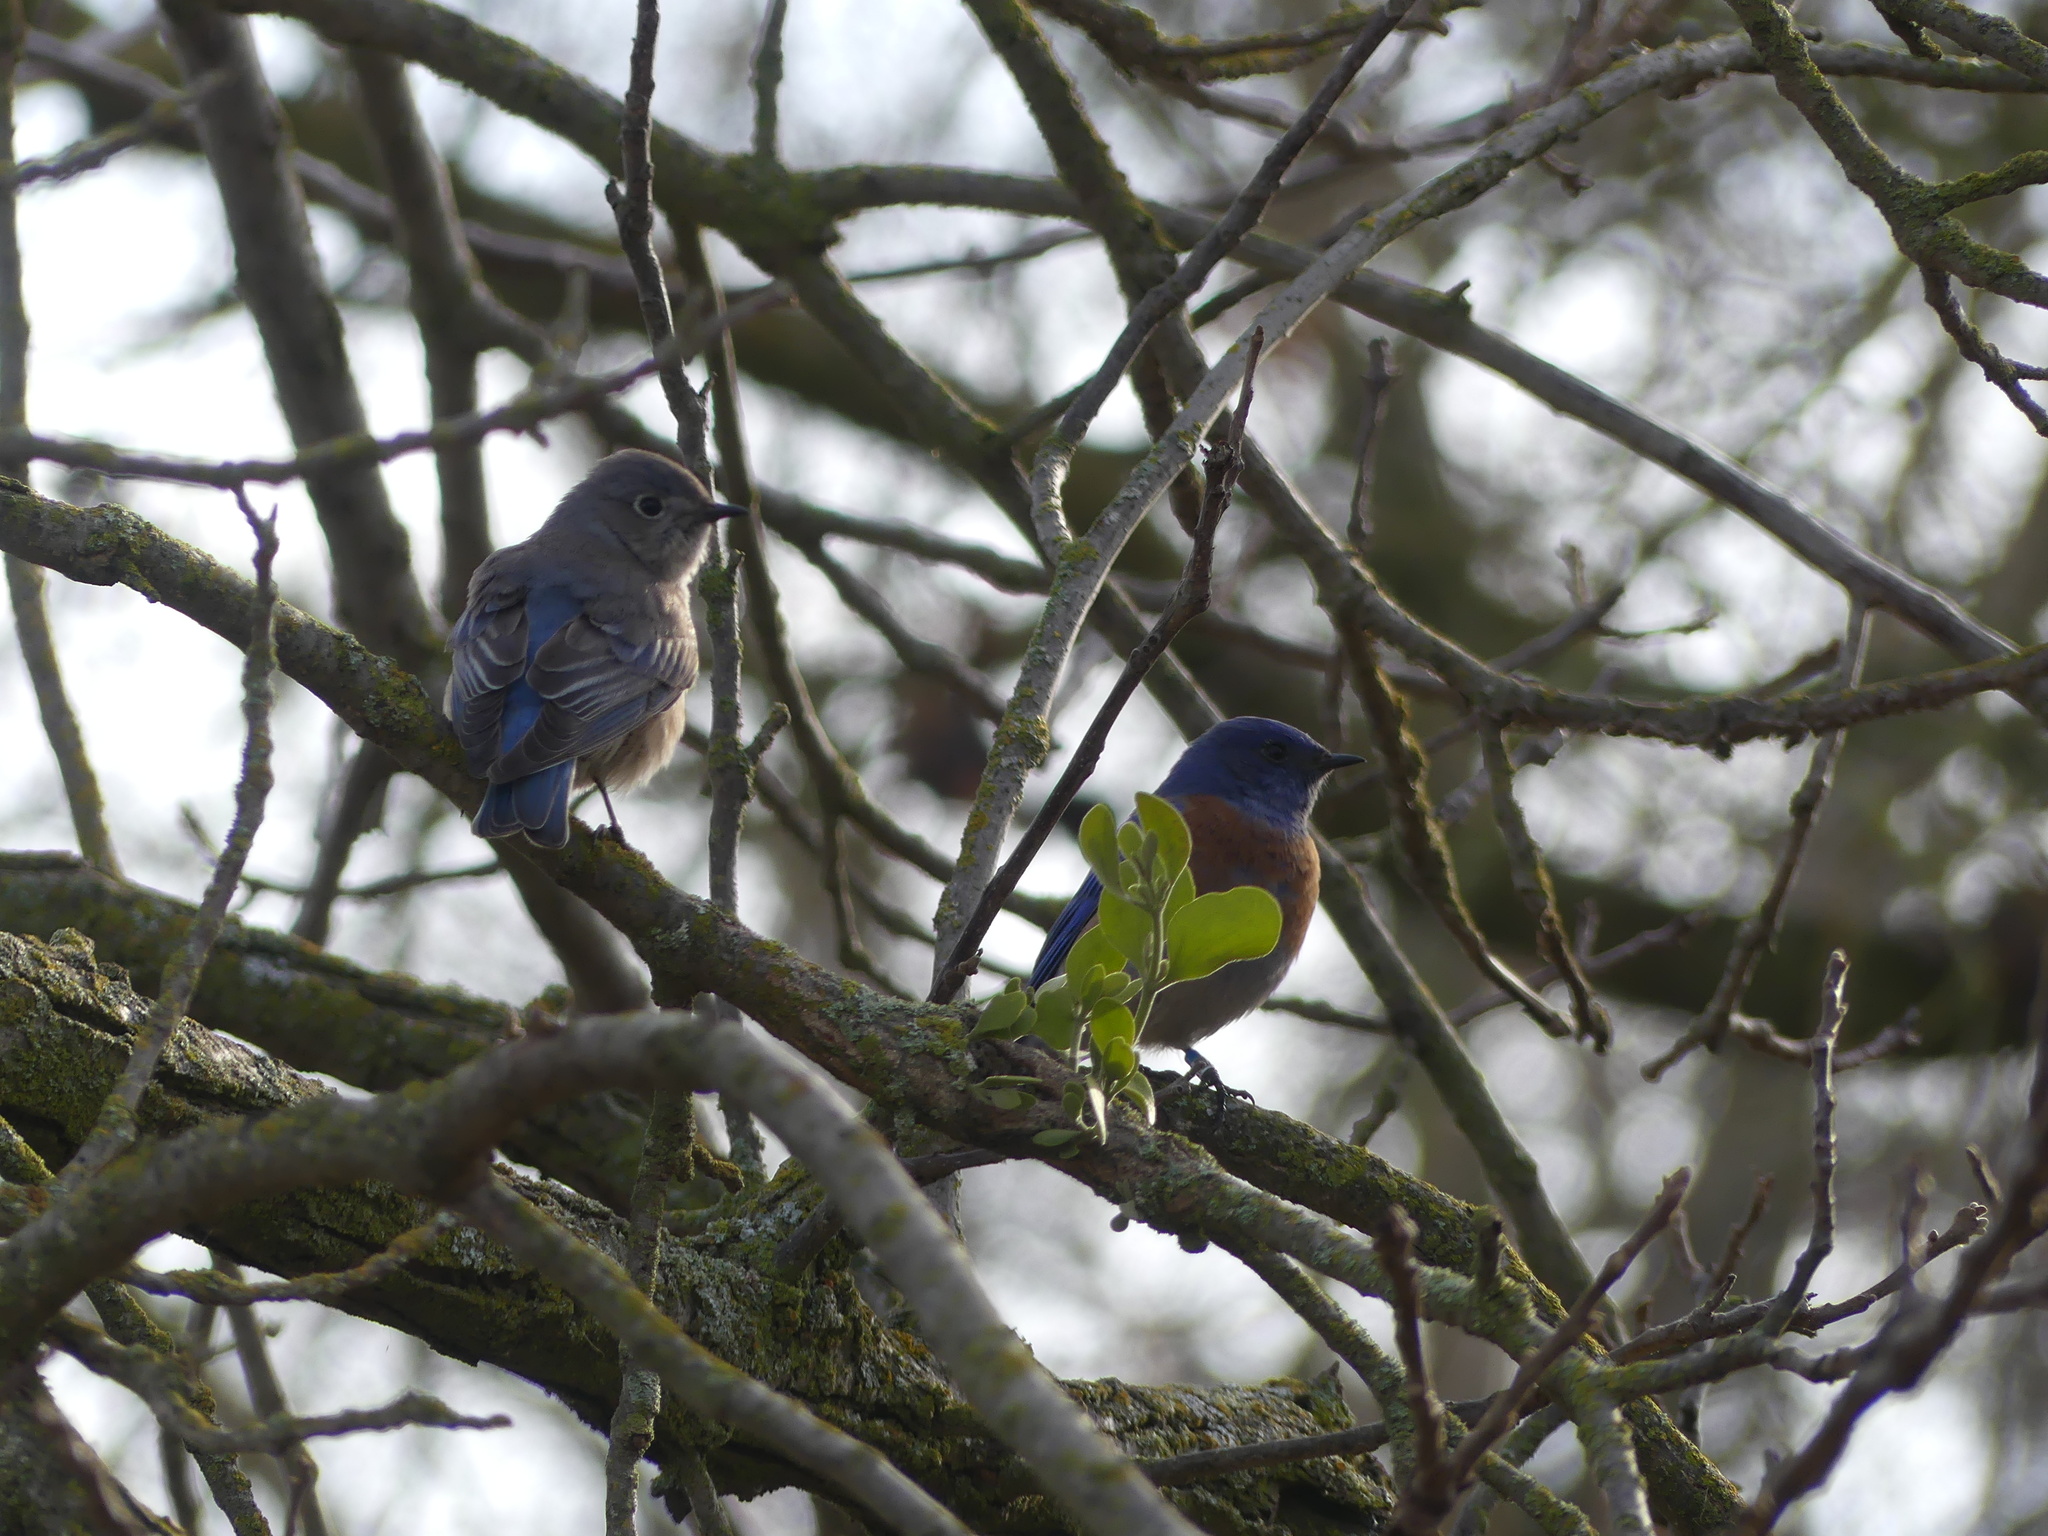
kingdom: Animalia
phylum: Chordata
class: Aves
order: Passeriformes
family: Turdidae
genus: Sialia
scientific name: Sialia mexicana
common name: Western bluebird
